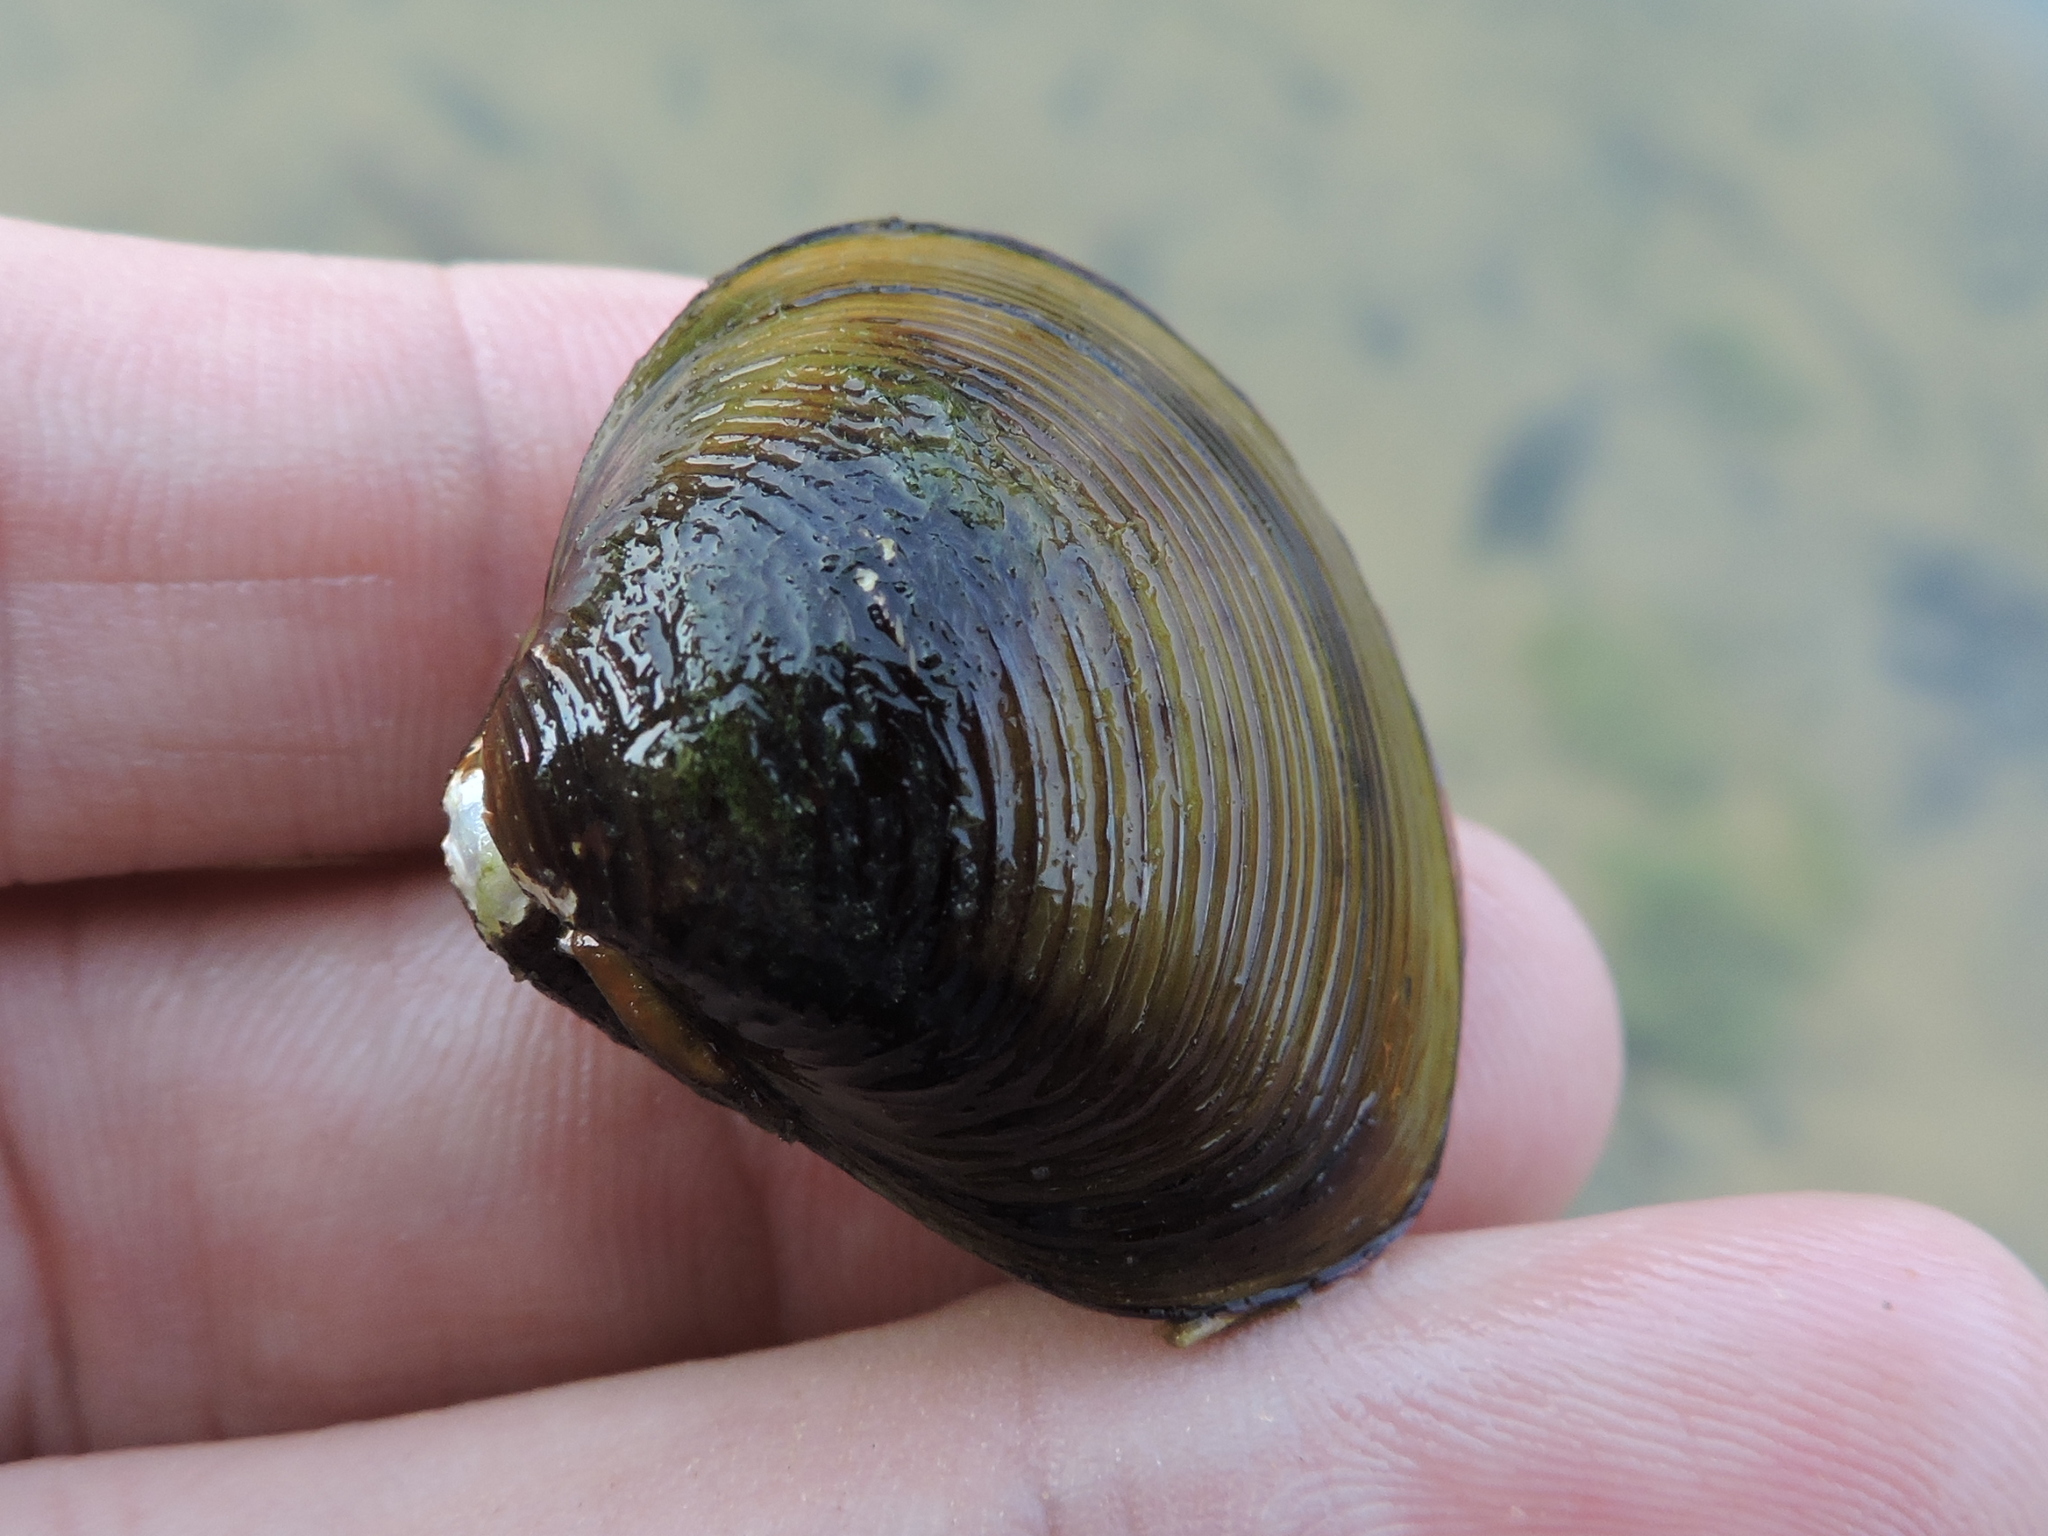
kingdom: Animalia
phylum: Mollusca
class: Bivalvia
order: Venerida
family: Cyrenidae
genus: Corbicula
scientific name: Corbicula fluminea
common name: Asian clam
